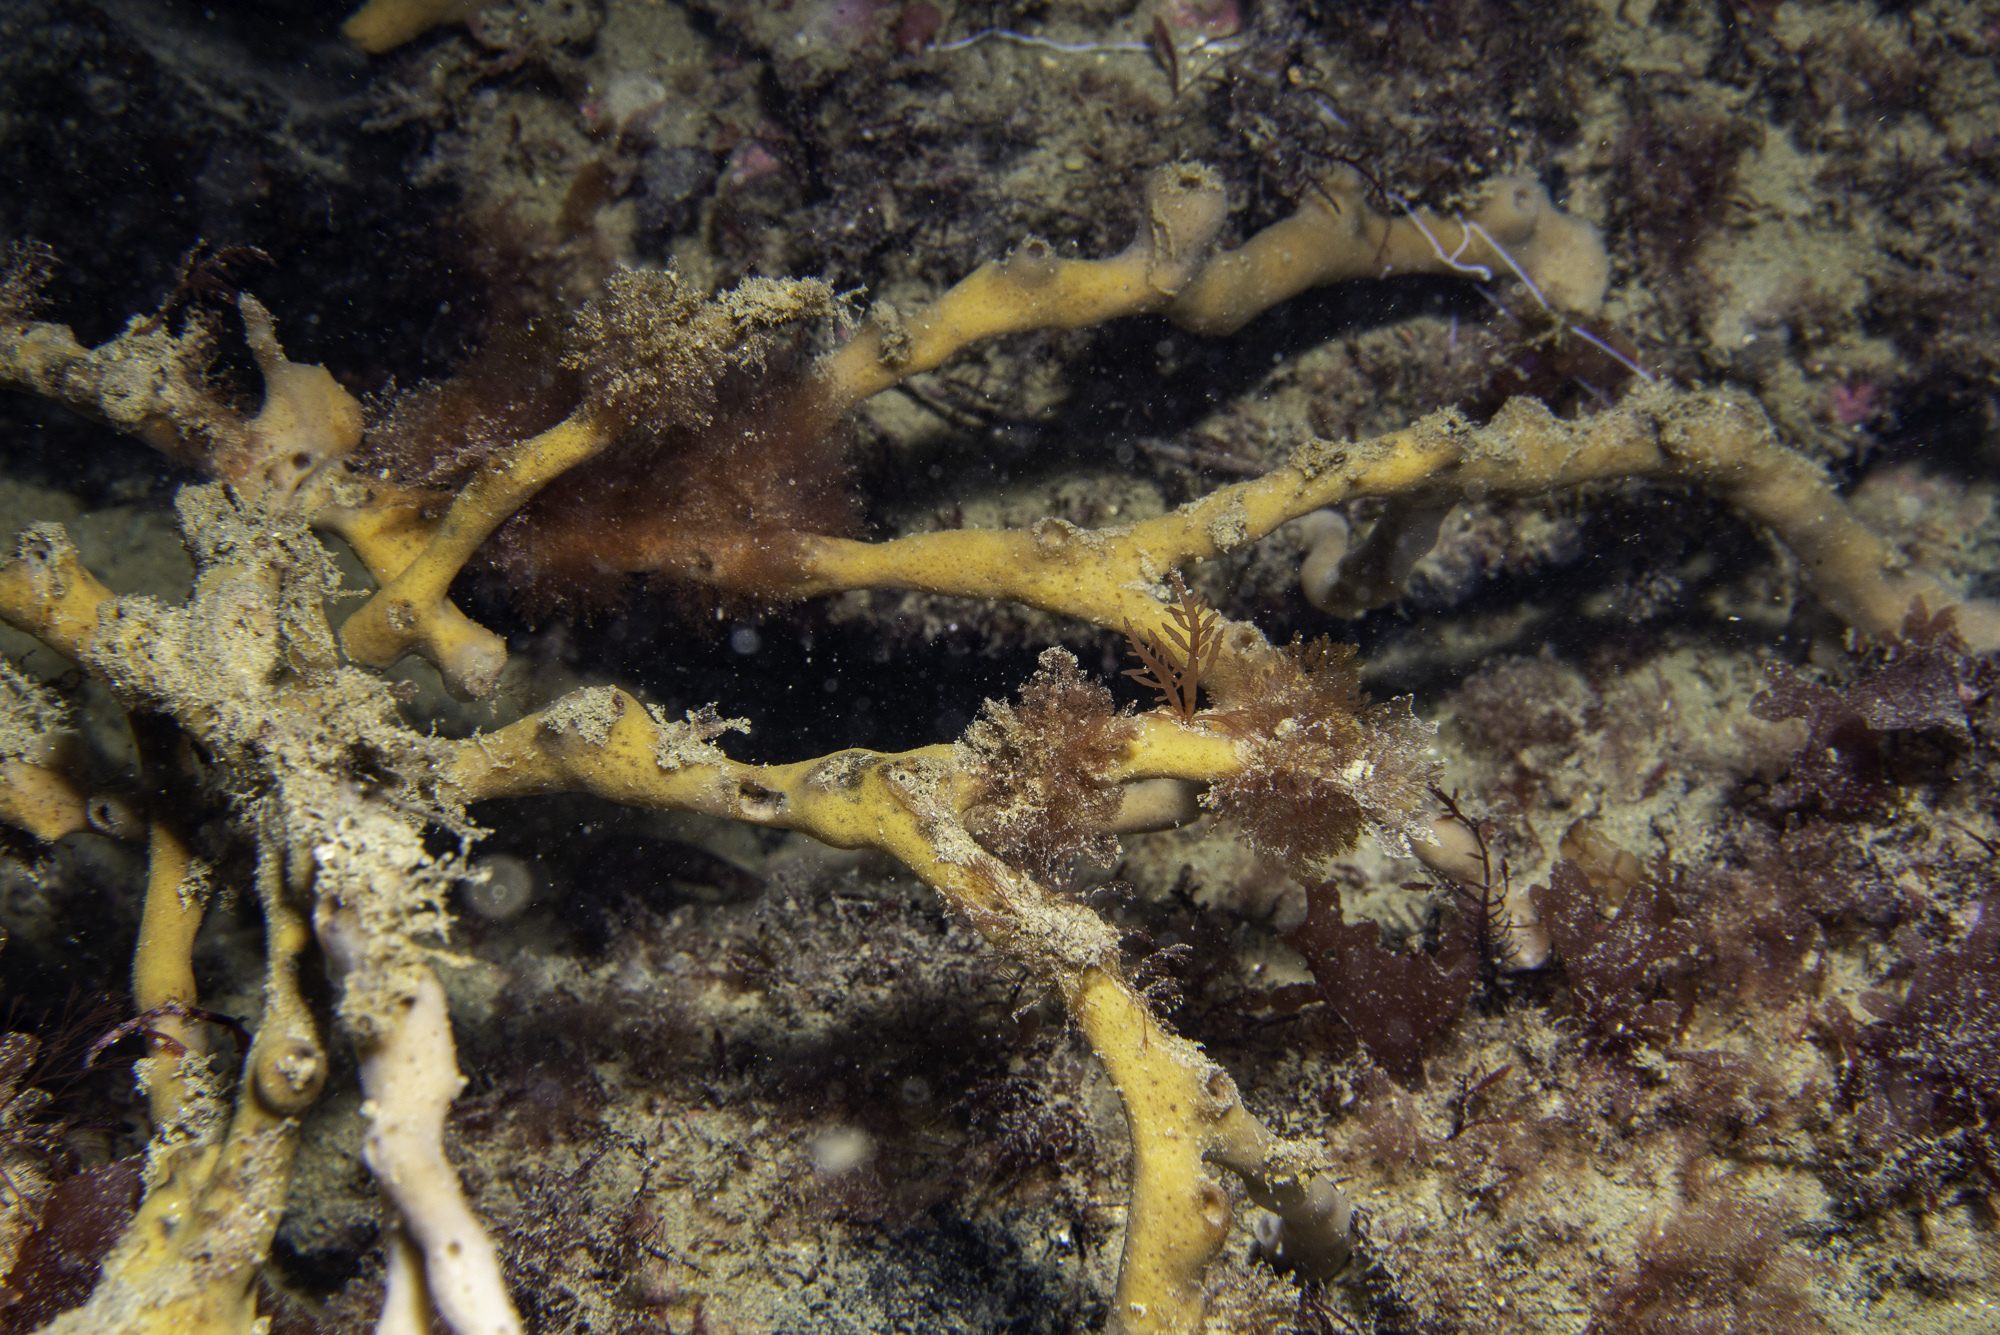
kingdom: Animalia
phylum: Porifera
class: Demospongiae
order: Haplosclerida
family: Chalinidae
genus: Haliclona
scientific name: Haliclona simulans
